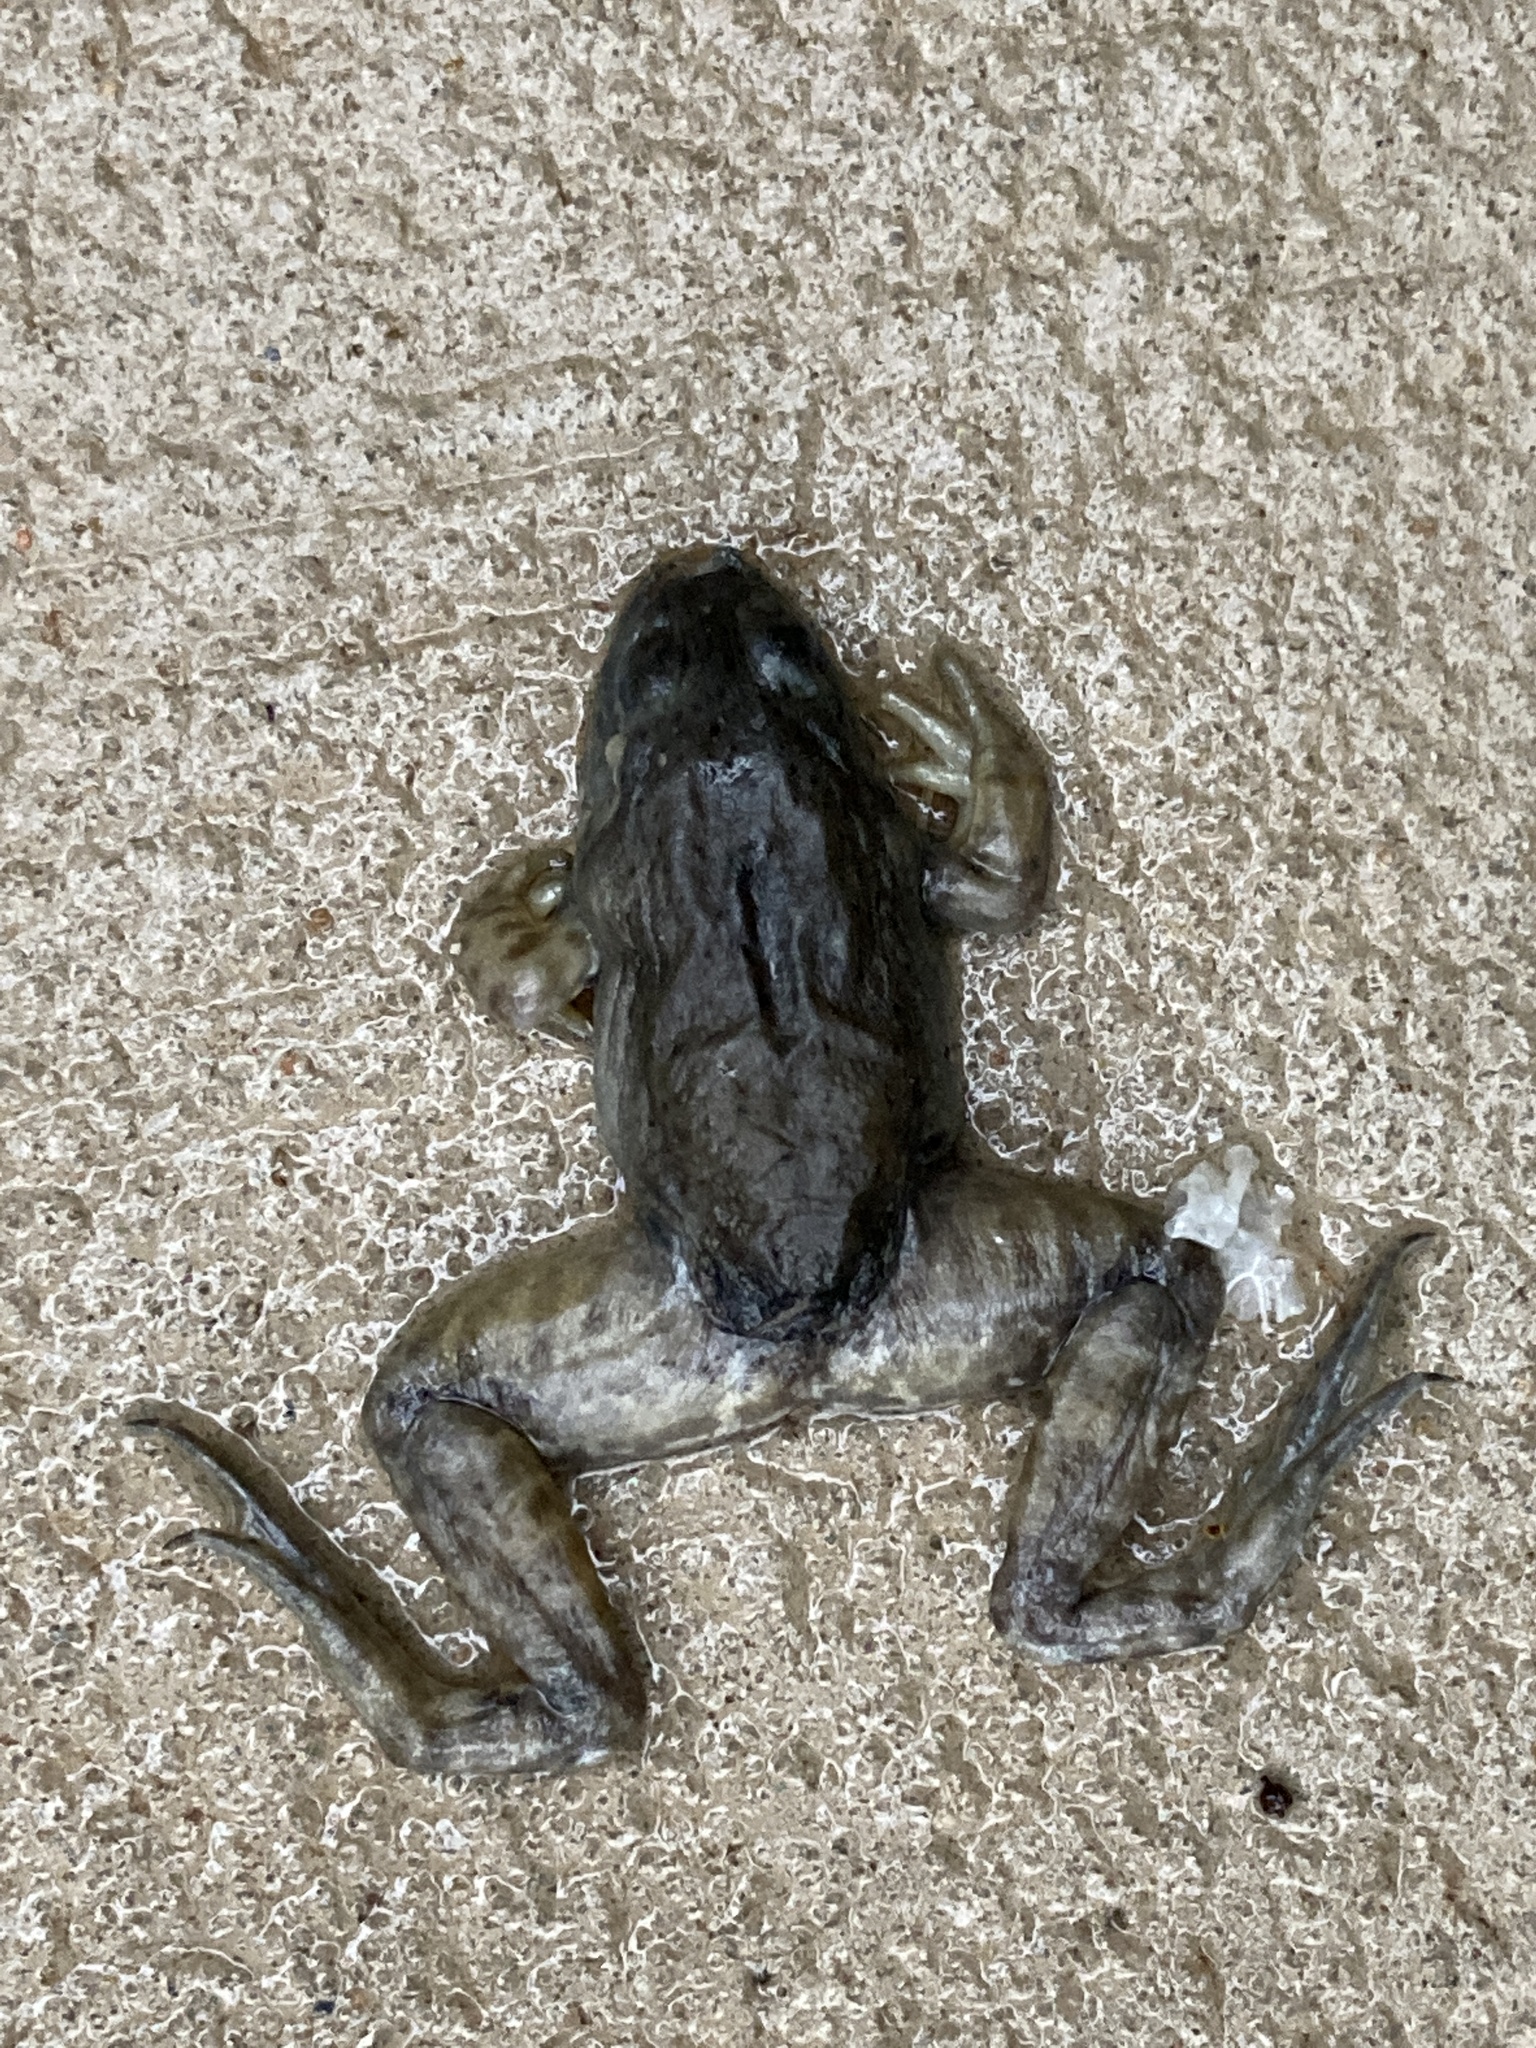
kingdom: Animalia
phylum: Chordata
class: Amphibia
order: Anura
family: Ranidae
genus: Lithobates
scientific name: Lithobates catesbeianus
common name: American bullfrog
